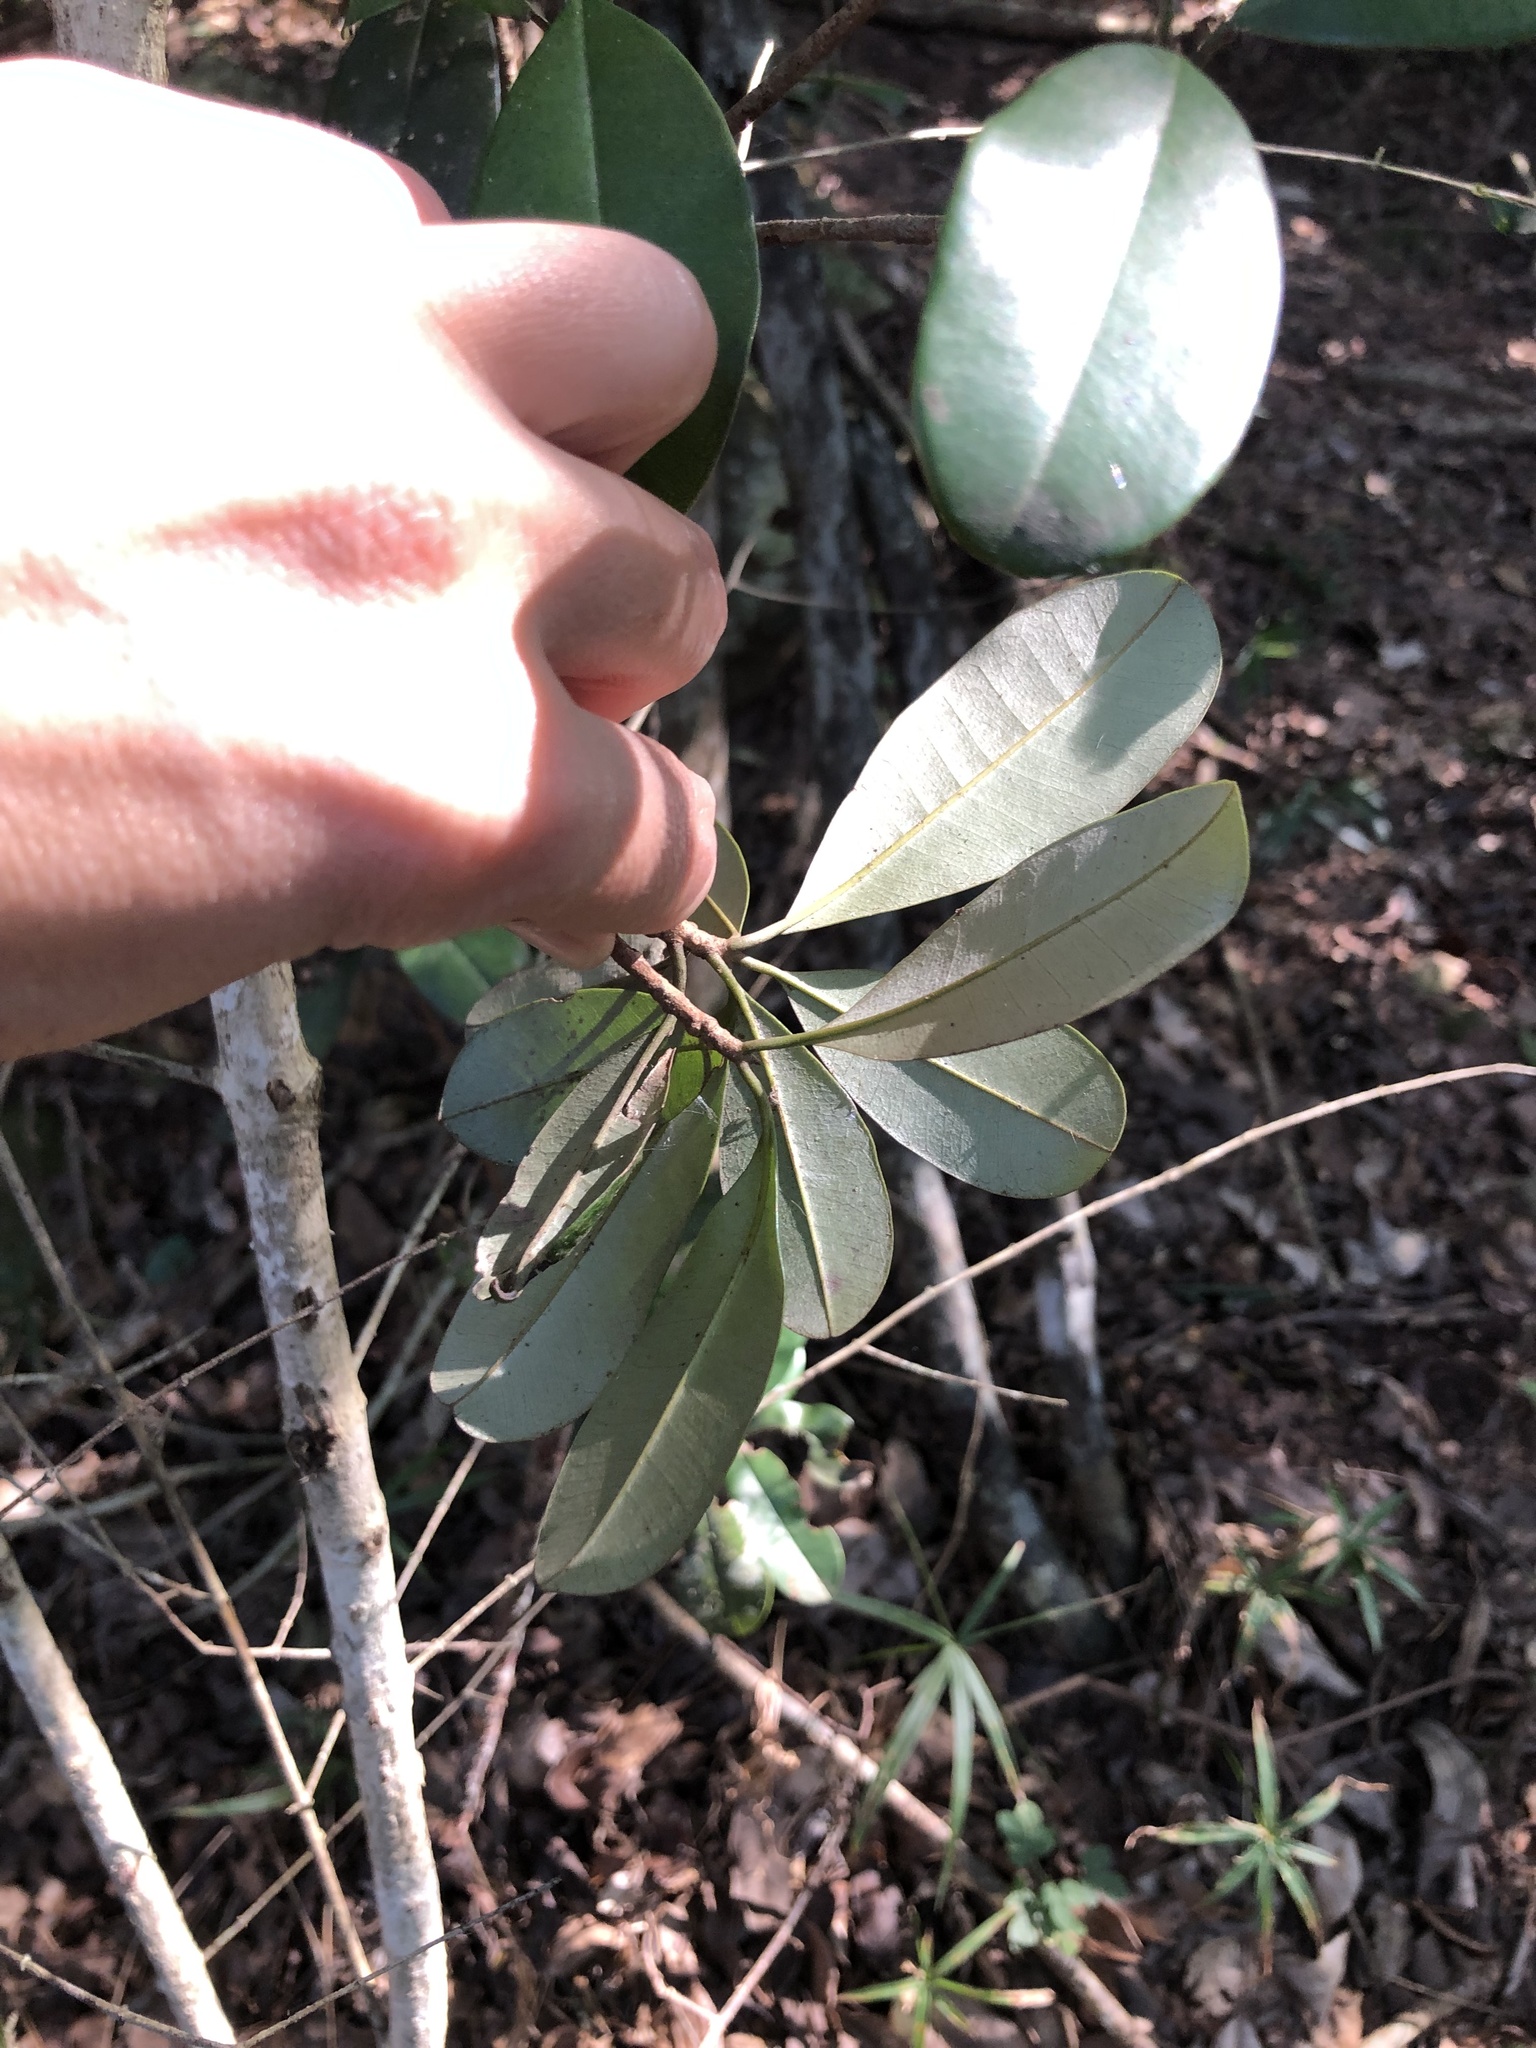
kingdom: Plantae
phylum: Tracheophyta
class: Magnoliopsida
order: Ericales
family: Sapotaceae
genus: Manilkara
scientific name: Manilkara discolor
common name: Forest milkberry
